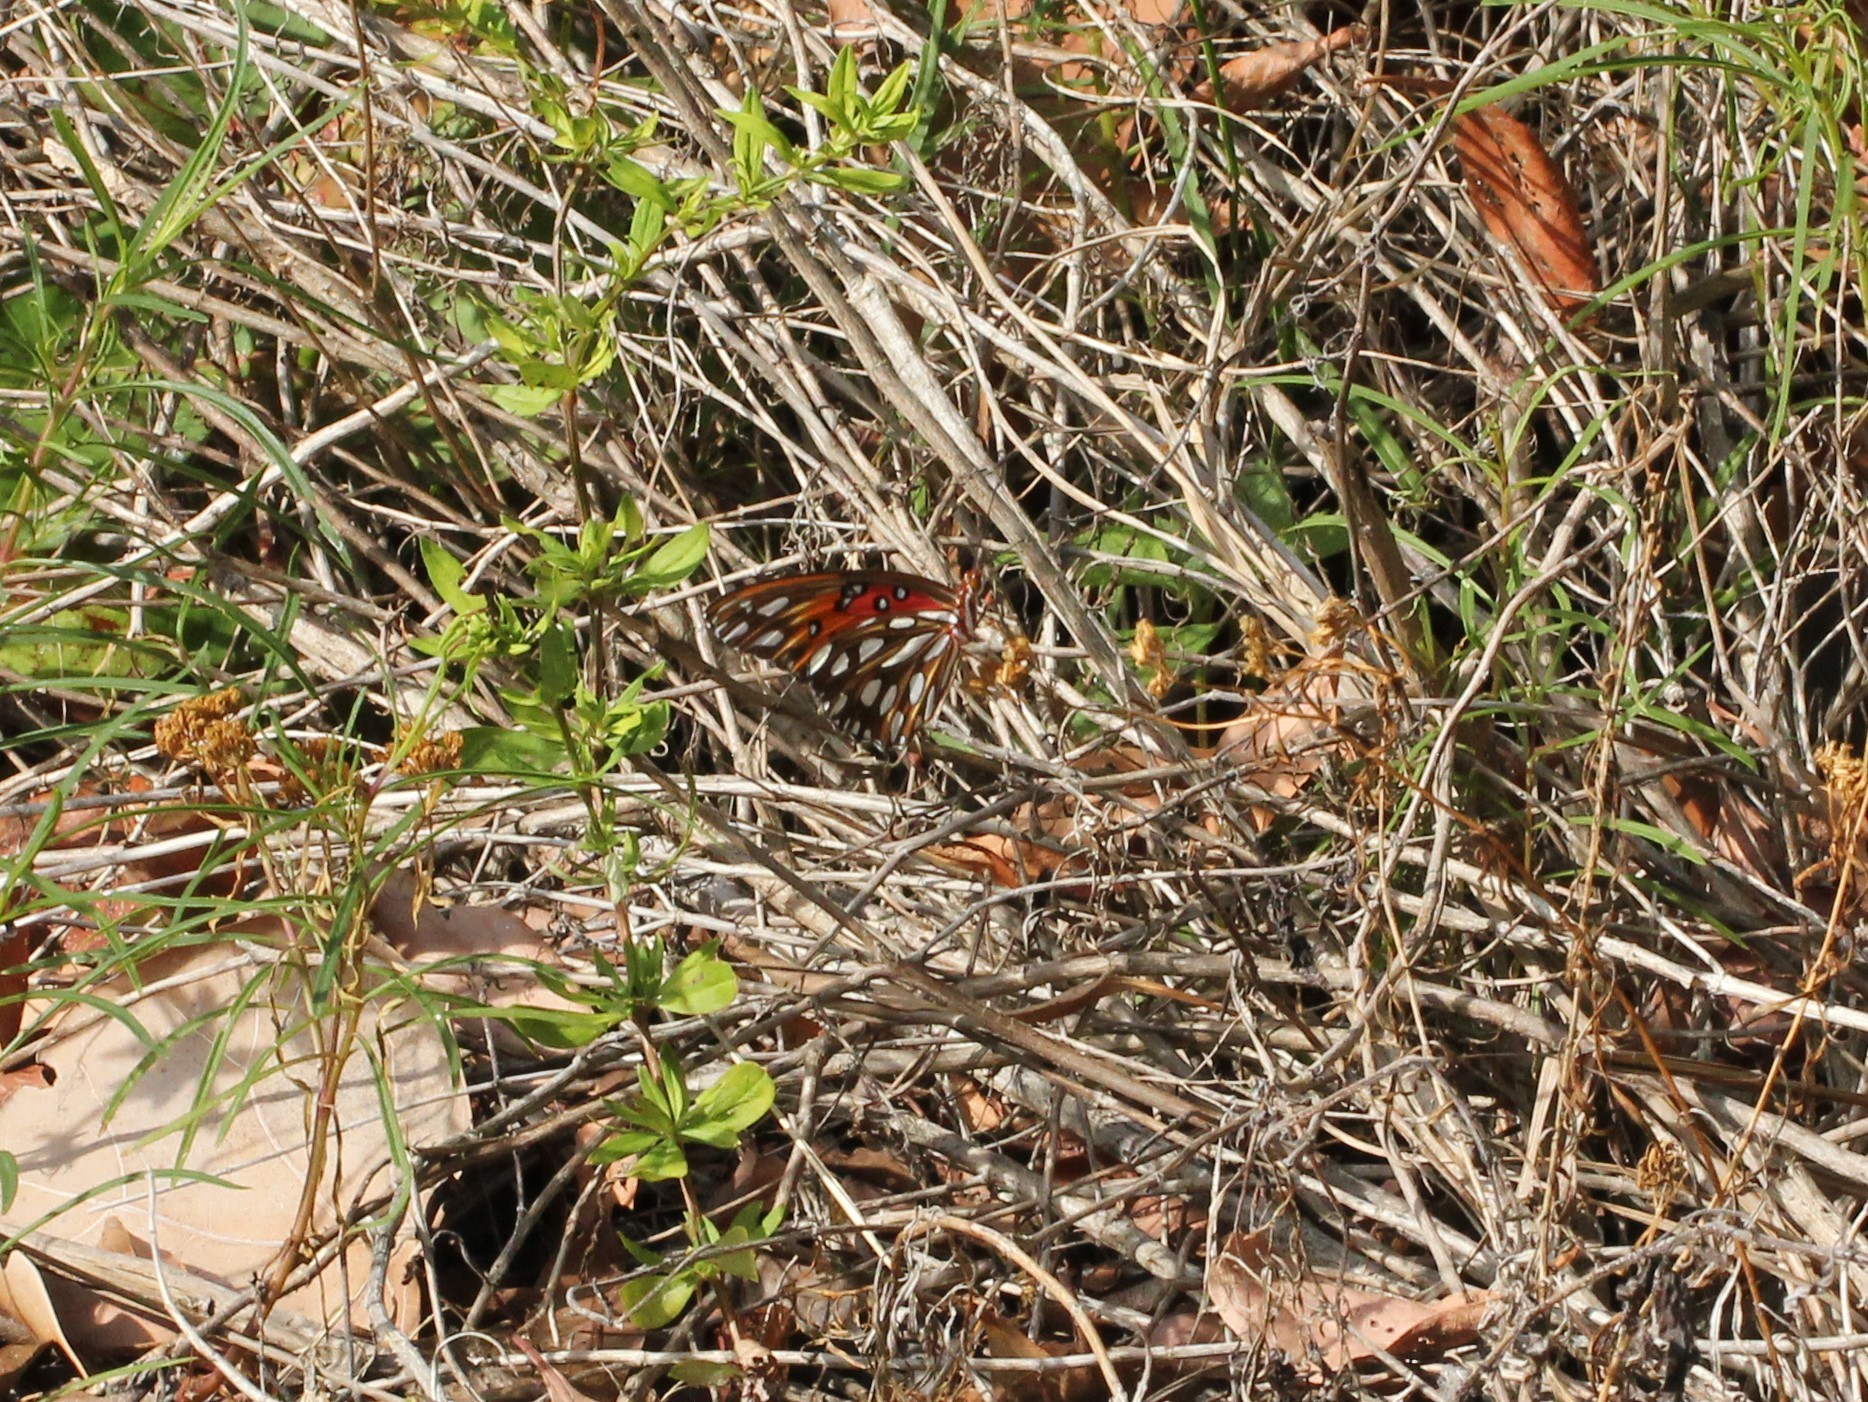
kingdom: Animalia
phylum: Arthropoda
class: Insecta
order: Lepidoptera
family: Nymphalidae
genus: Dione
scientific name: Dione vanillae
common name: Gulf fritillary
